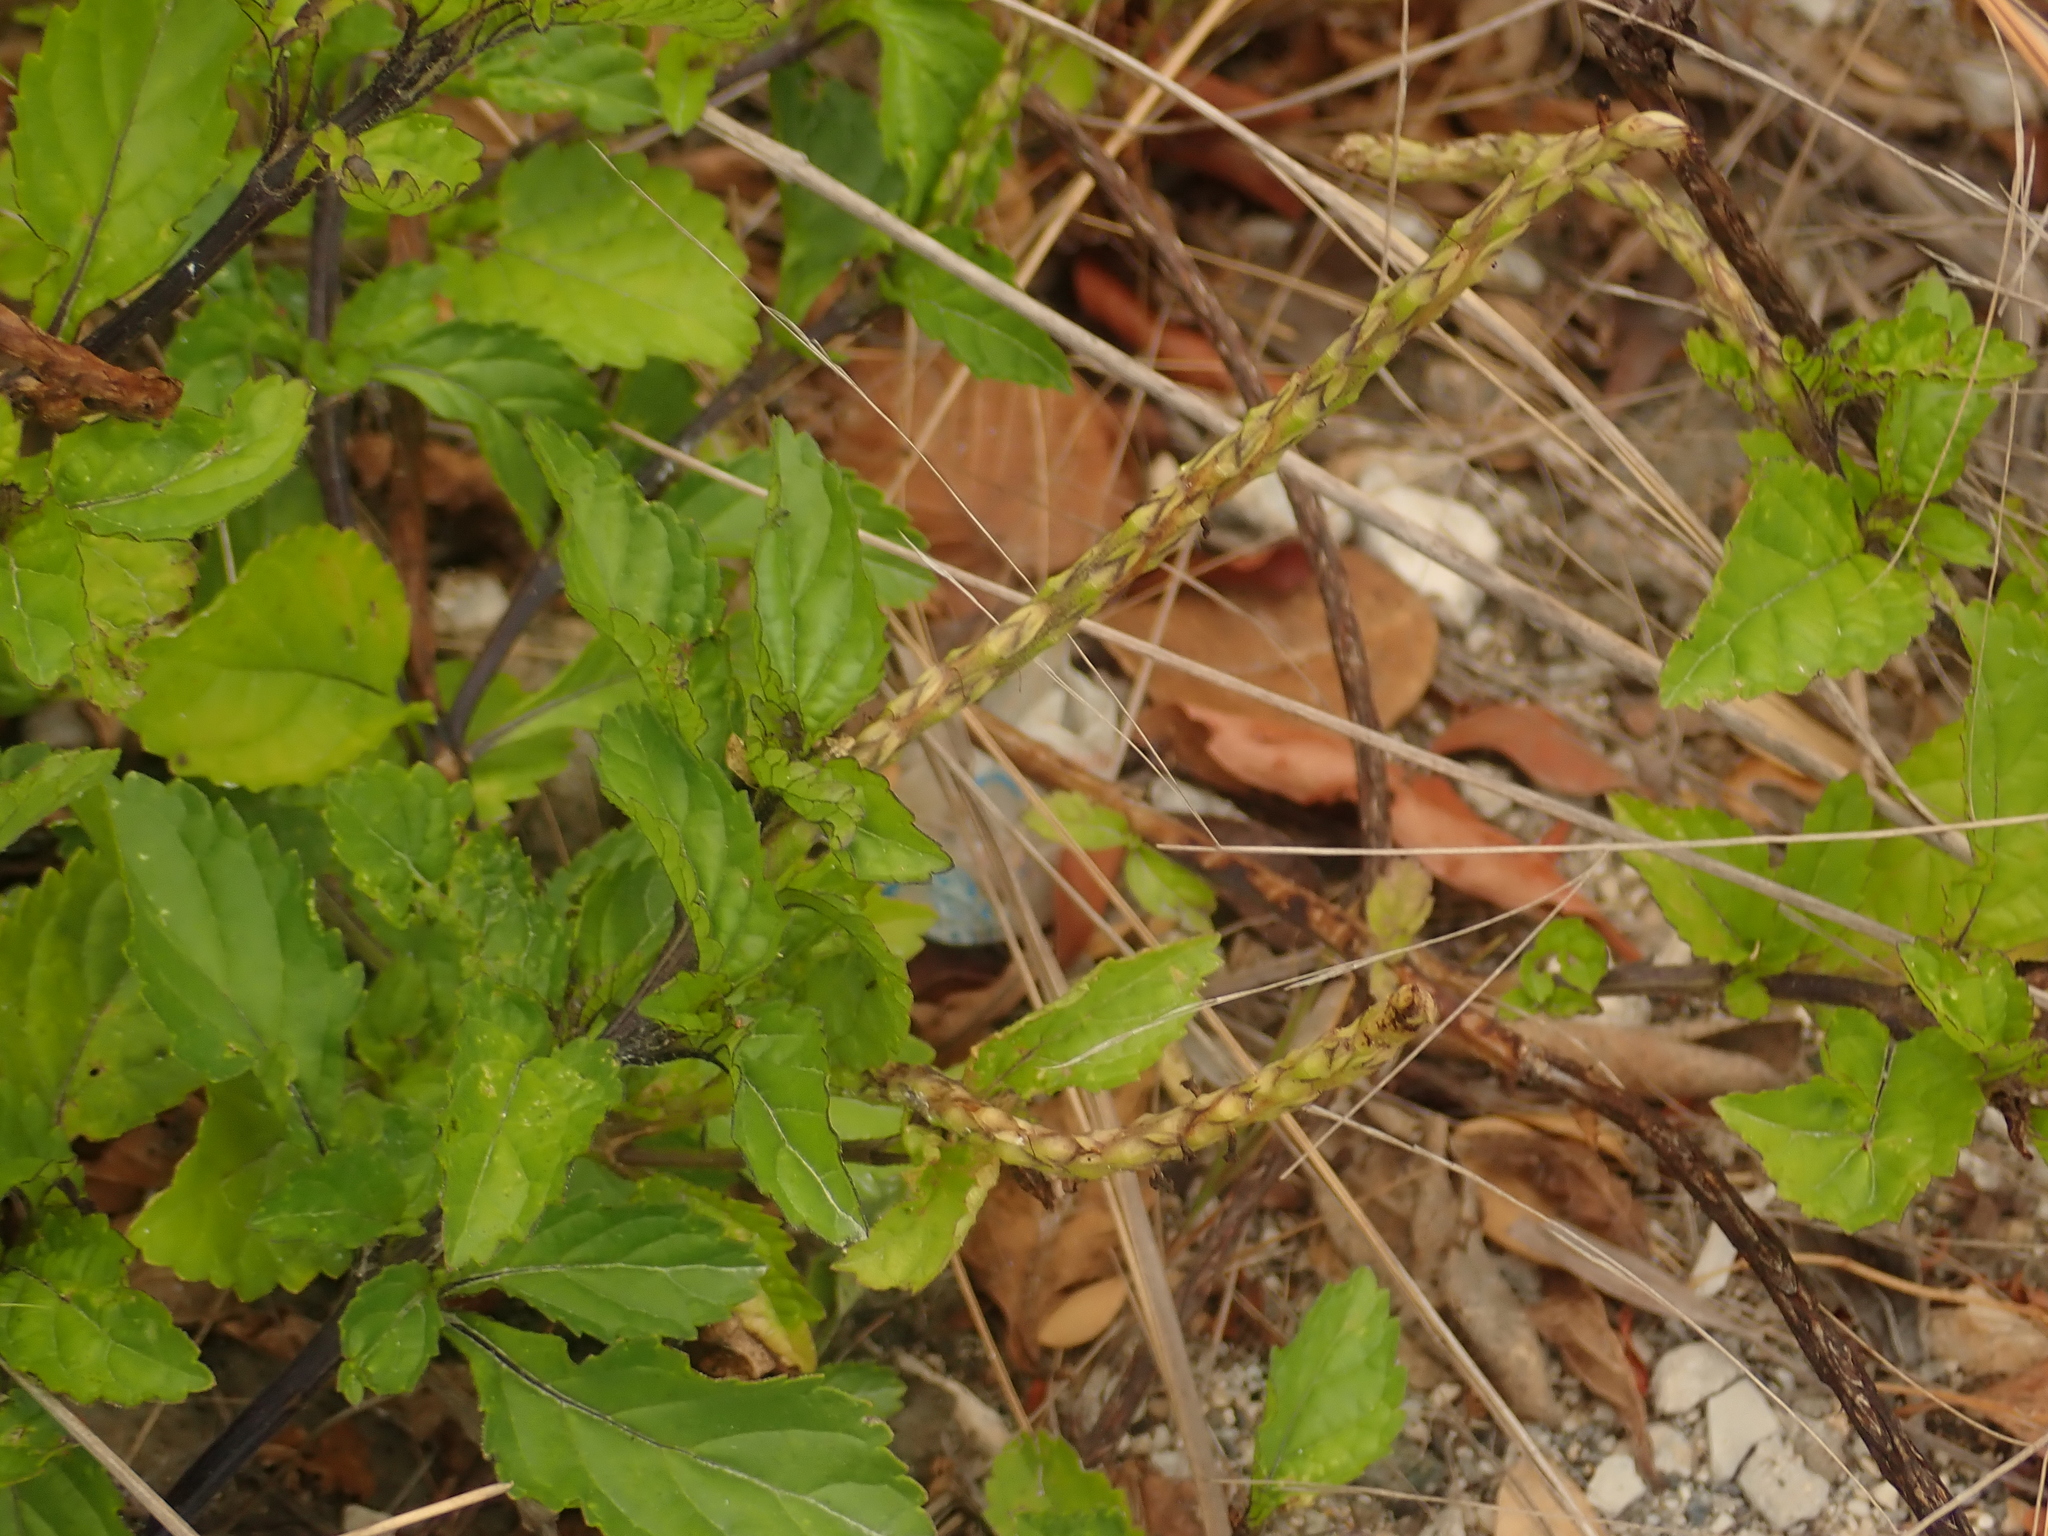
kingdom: Plantae
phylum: Tracheophyta
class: Magnoliopsida
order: Lamiales
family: Verbenaceae
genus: Stachytarpheta
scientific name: Stachytarpheta jamaicensis
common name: Light-blue snakeweed
